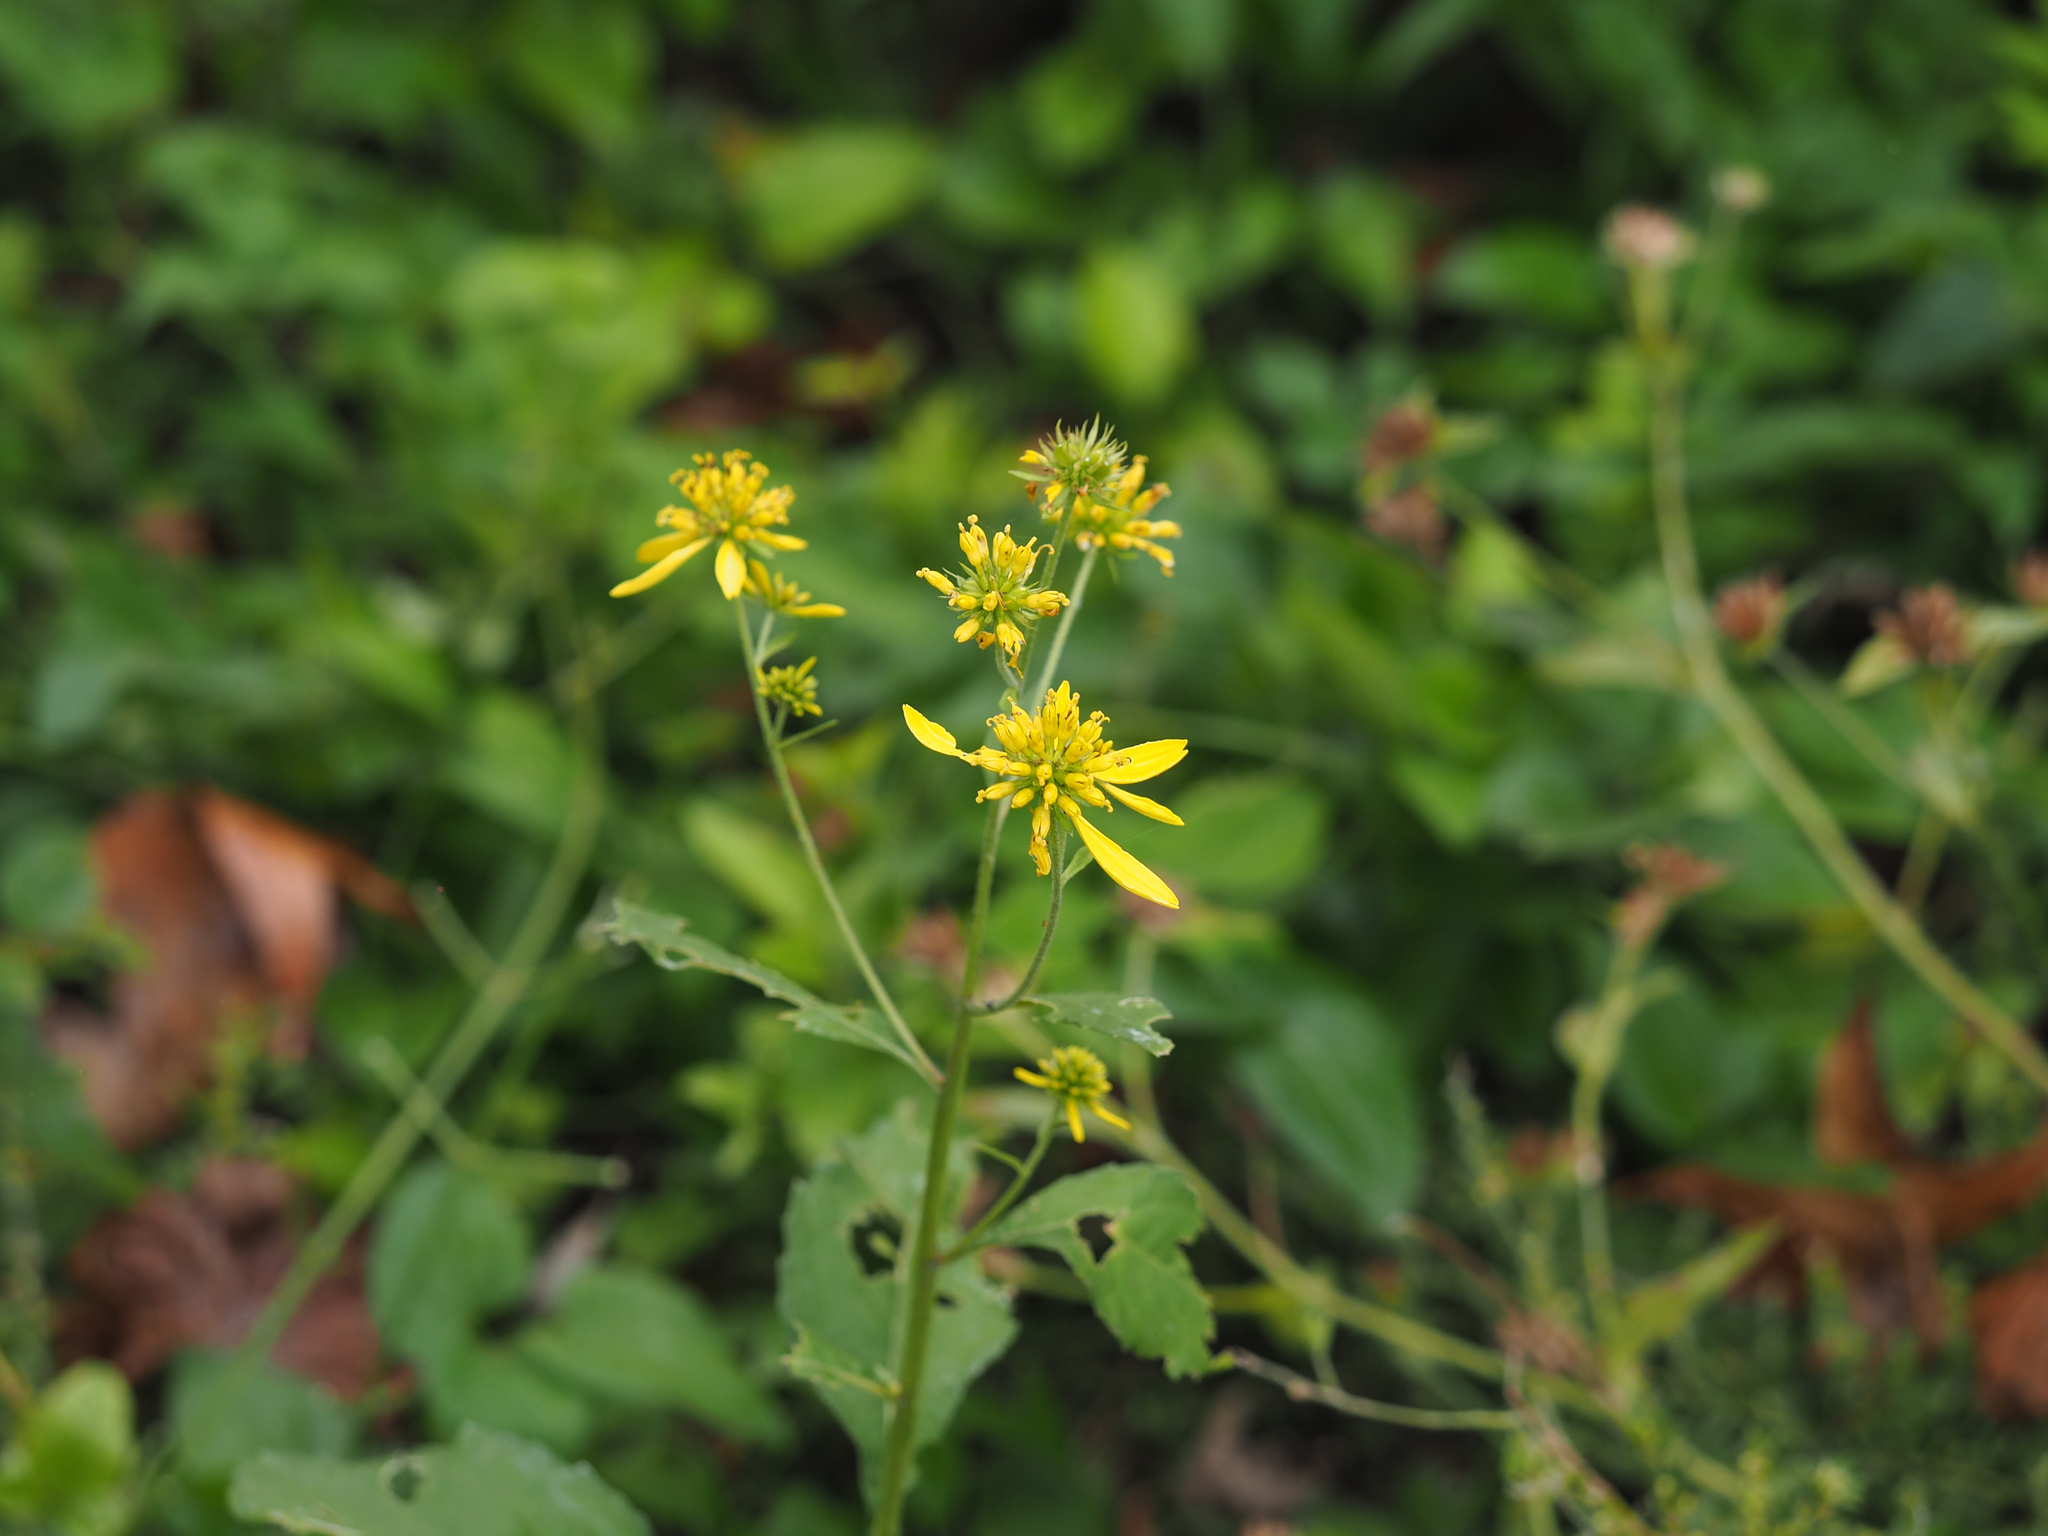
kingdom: Plantae
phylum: Tracheophyta
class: Magnoliopsida
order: Asterales
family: Asteraceae
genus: Verbesina
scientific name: Verbesina alternifolia
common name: Wingstem
